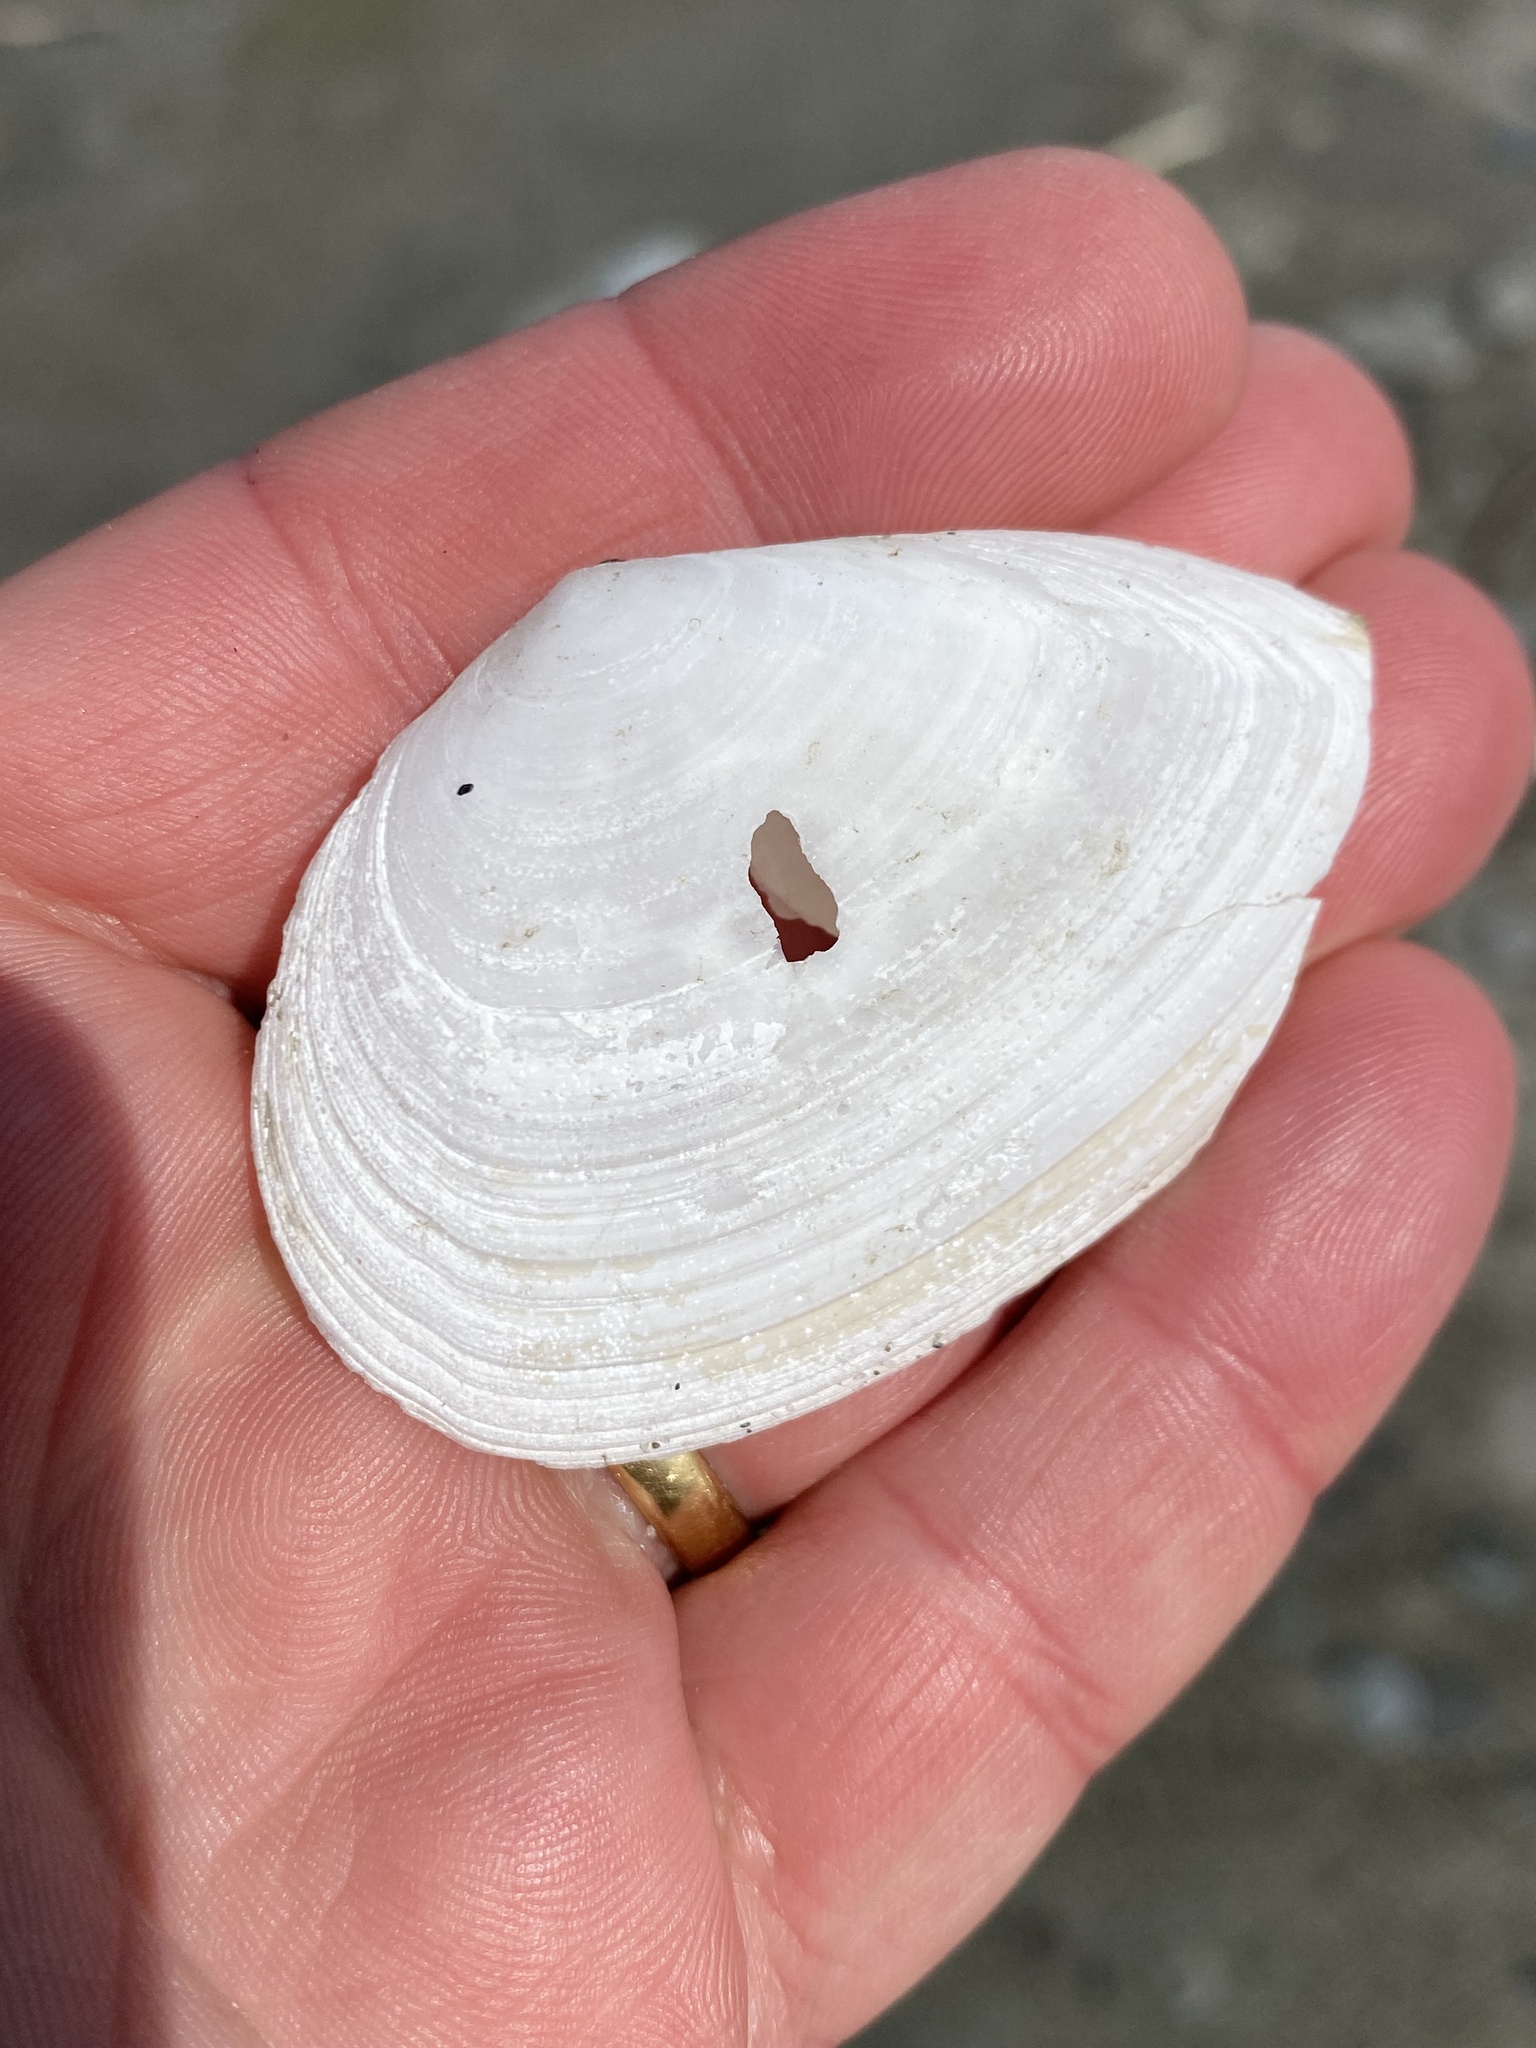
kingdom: Animalia
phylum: Mollusca
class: Bivalvia
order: Cardiida
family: Tellinidae
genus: Bartschicoma
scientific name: Bartschicoma gaimardi
